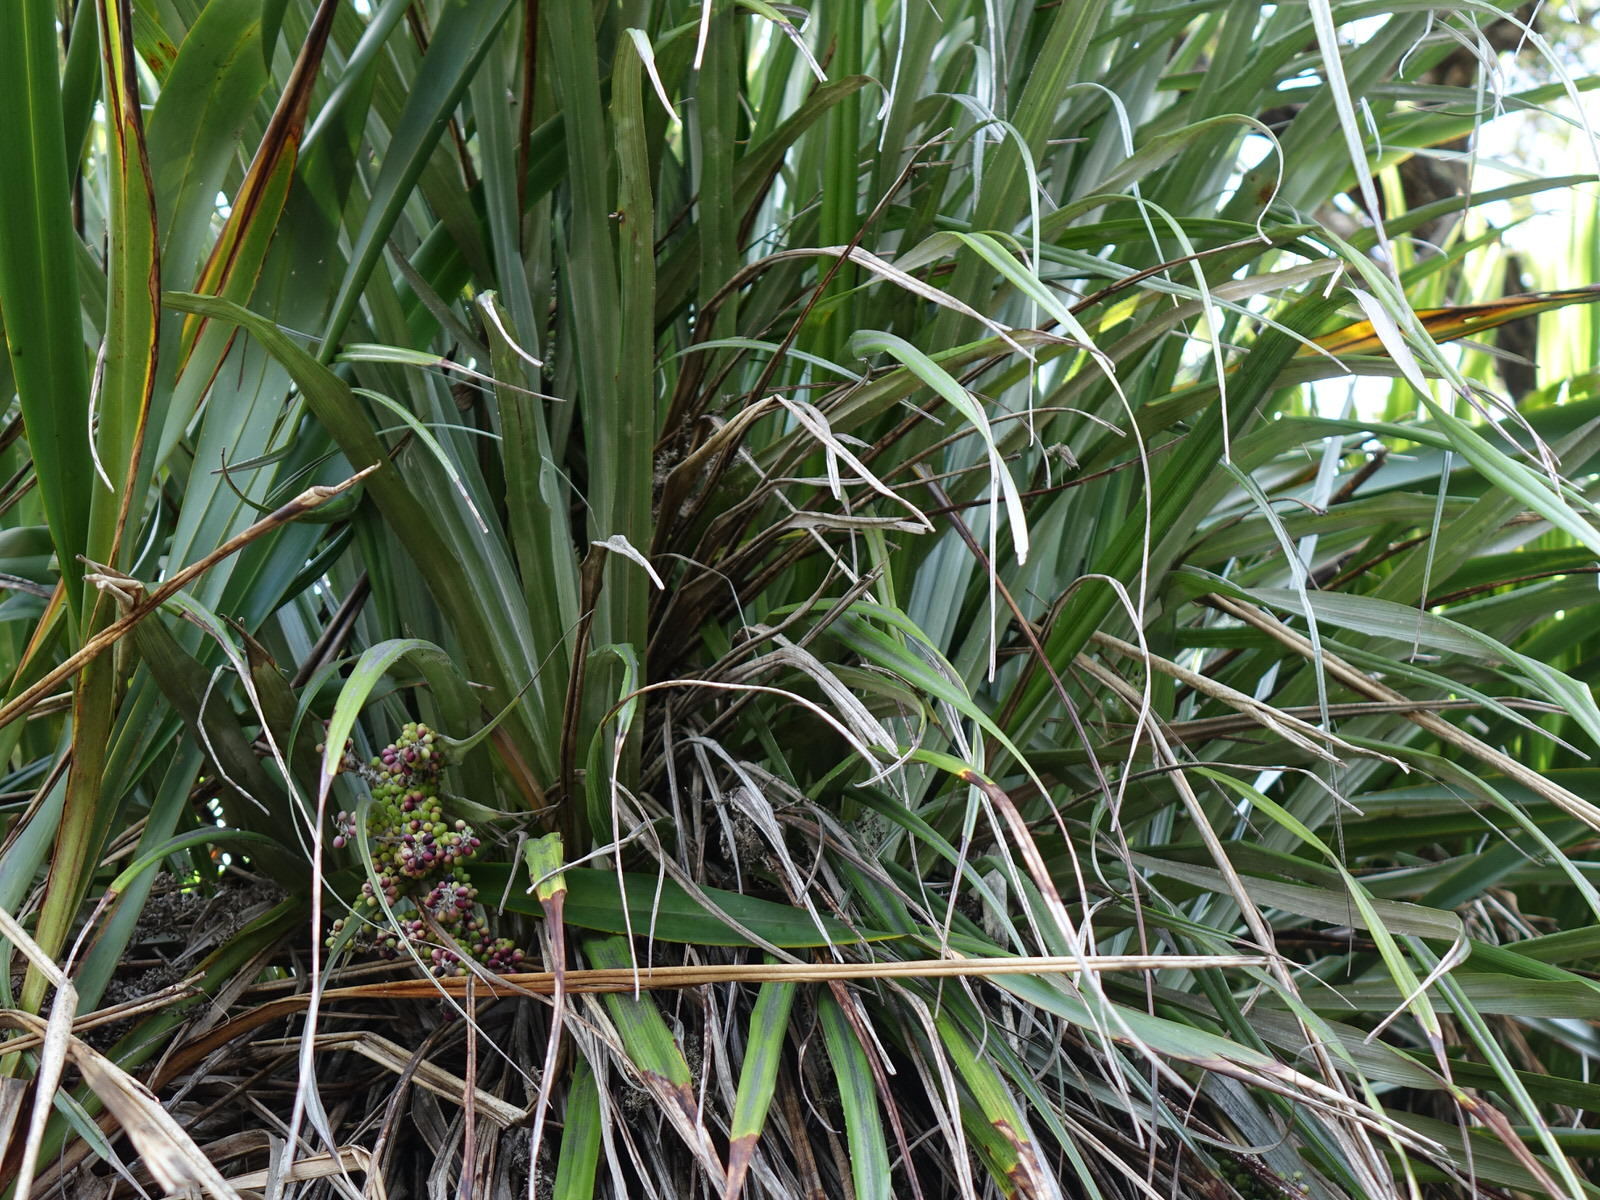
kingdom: Plantae
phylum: Tracheophyta
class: Liliopsida
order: Asparagales
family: Asteliaceae
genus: Astelia
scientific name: Astelia banksii
